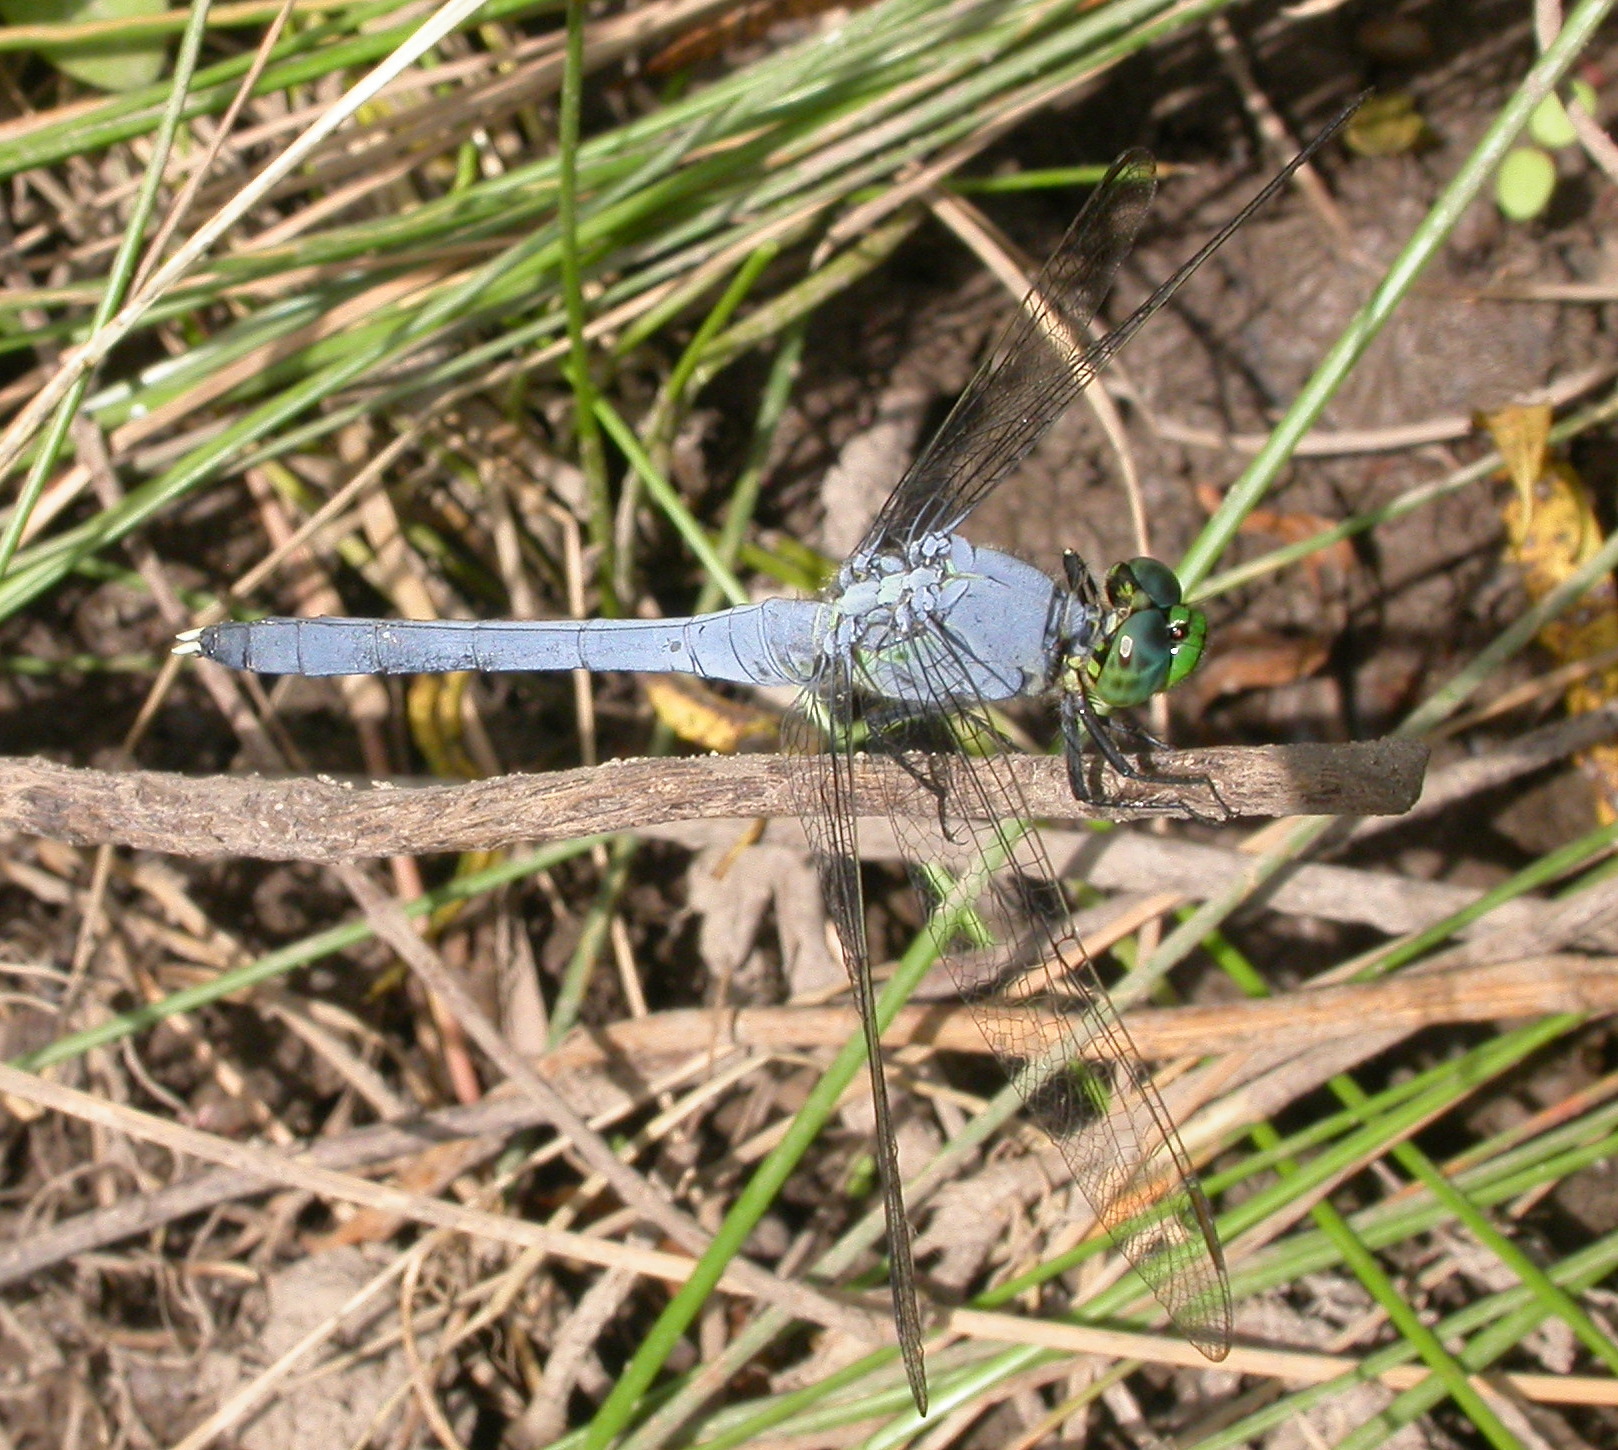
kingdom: Animalia
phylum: Arthropoda
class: Insecta
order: Odonata
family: Libellulidae
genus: Erythemis
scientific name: Erythemis simplicicollis
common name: Eastern pondhawk
